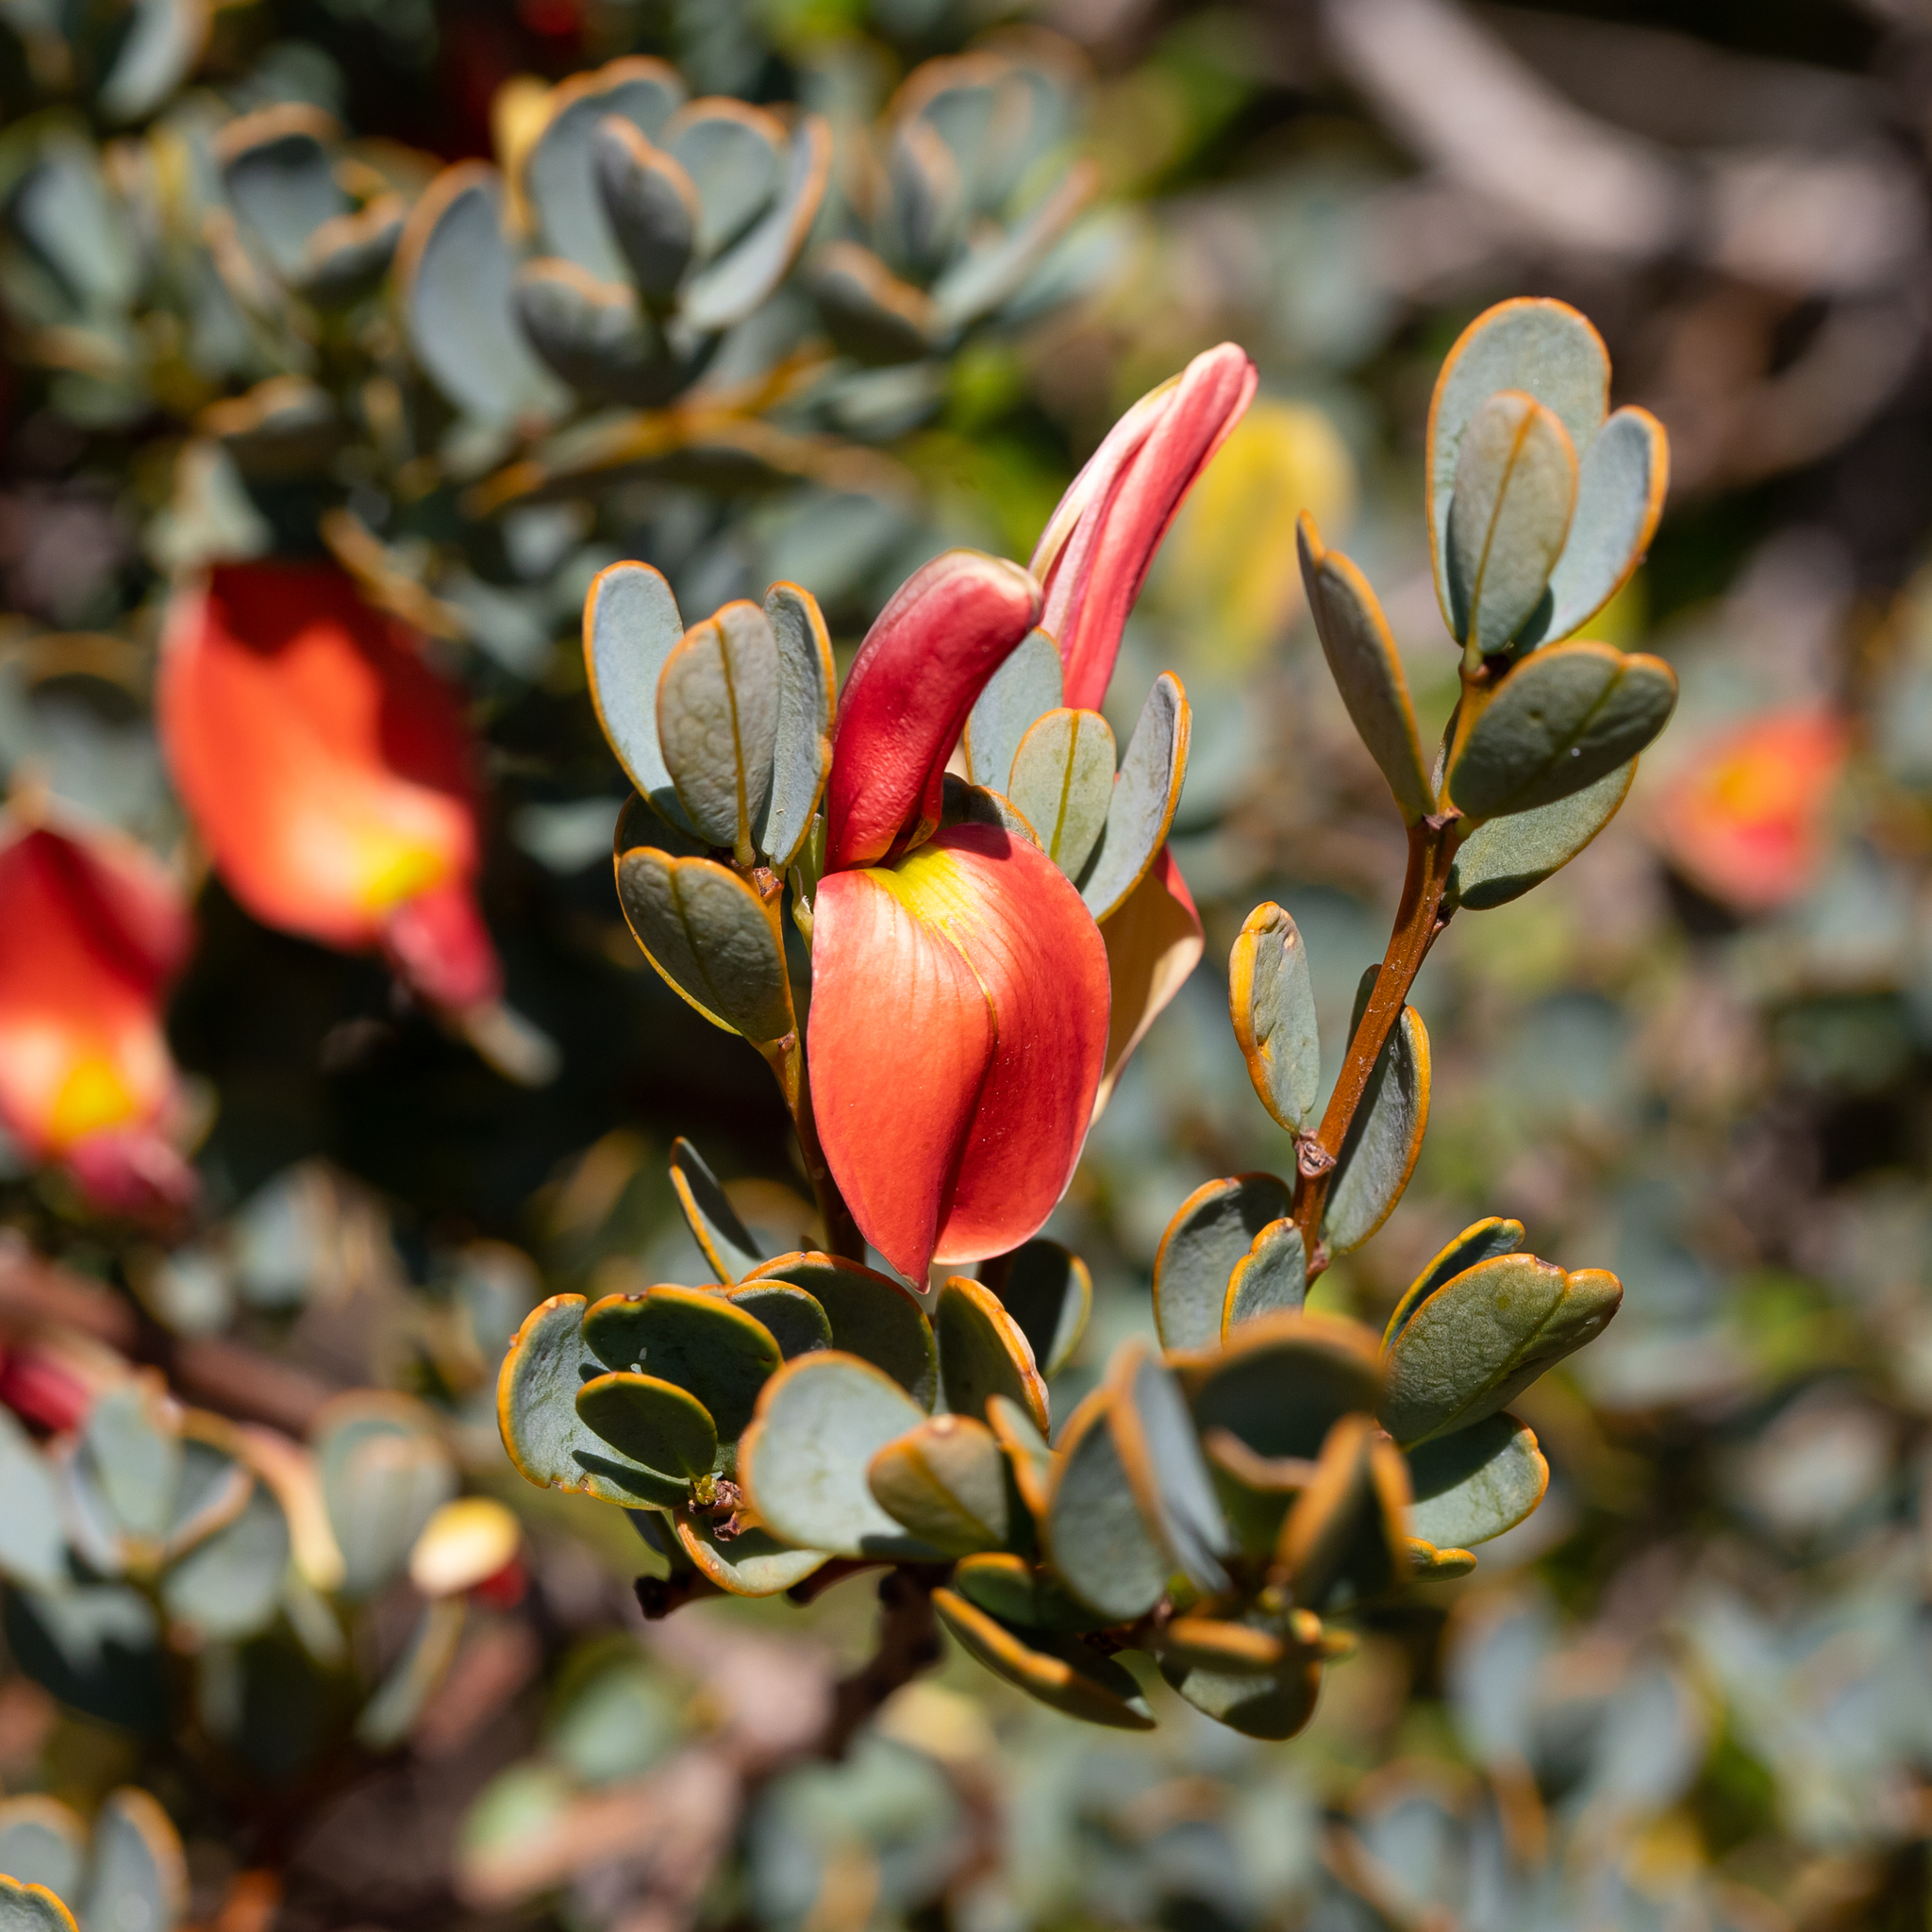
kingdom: Plantae
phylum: Tracheophyta
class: Magnoliopsida
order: Fabales
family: Fabaceae
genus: Templetonia
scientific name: Templetonia retusa
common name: Cockies'-tongue
